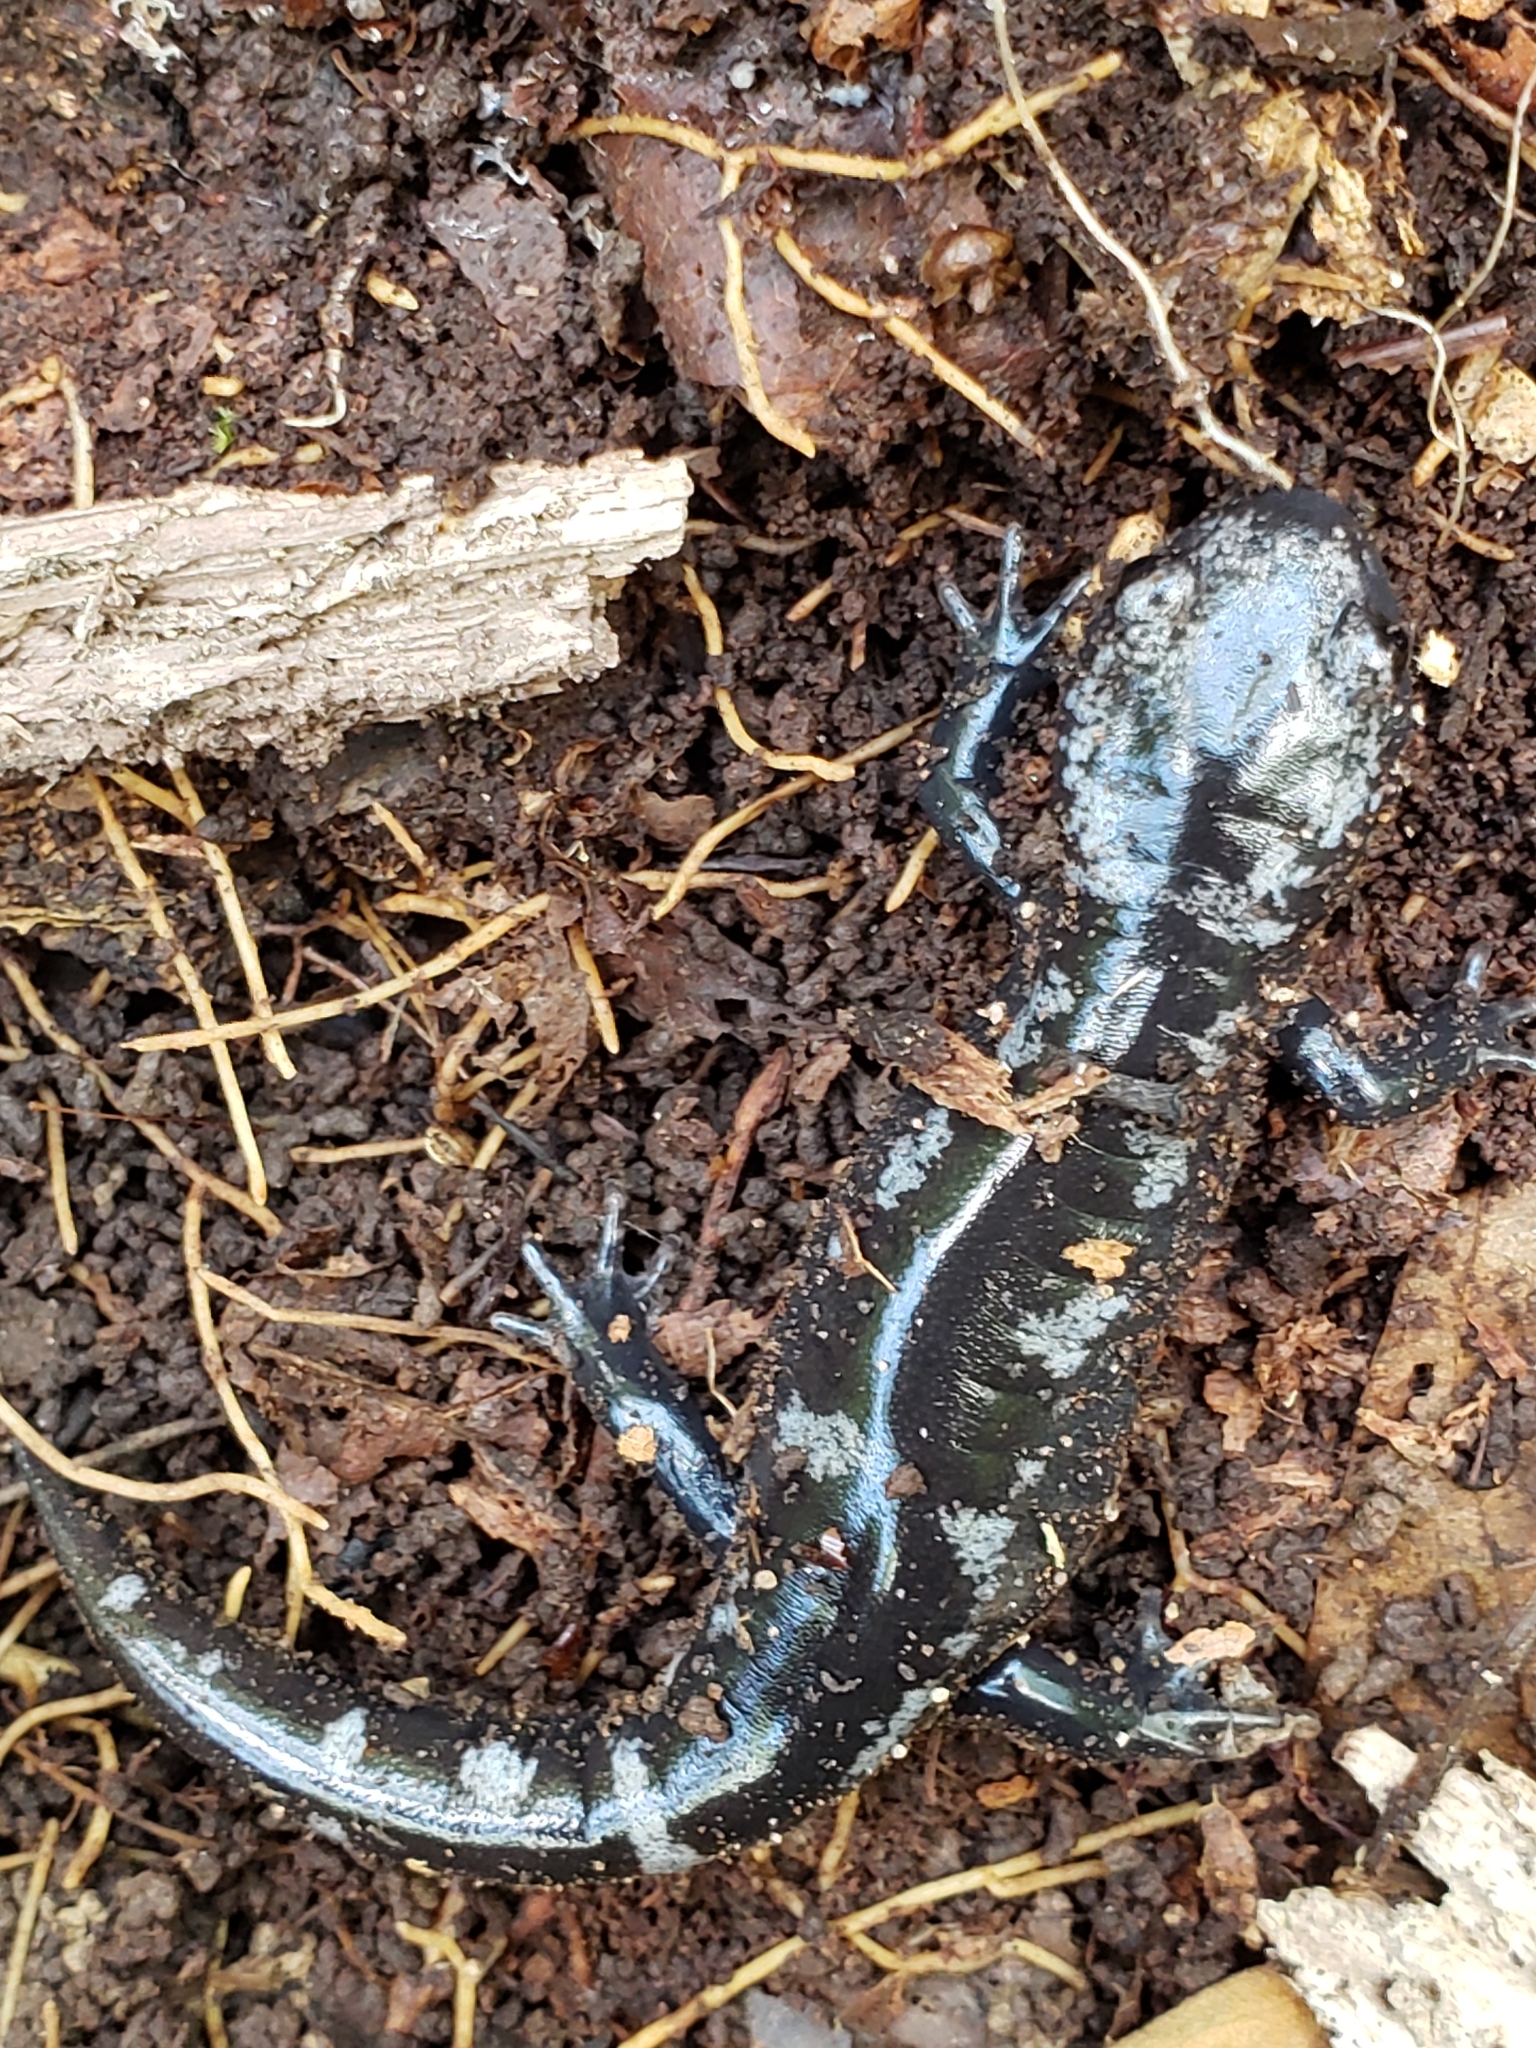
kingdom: Animalia
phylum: Chordata
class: Amphibia
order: Caudata
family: Ambystomatidae
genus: Ambystoma
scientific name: Ambystoma opacum
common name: Marbled salamander
